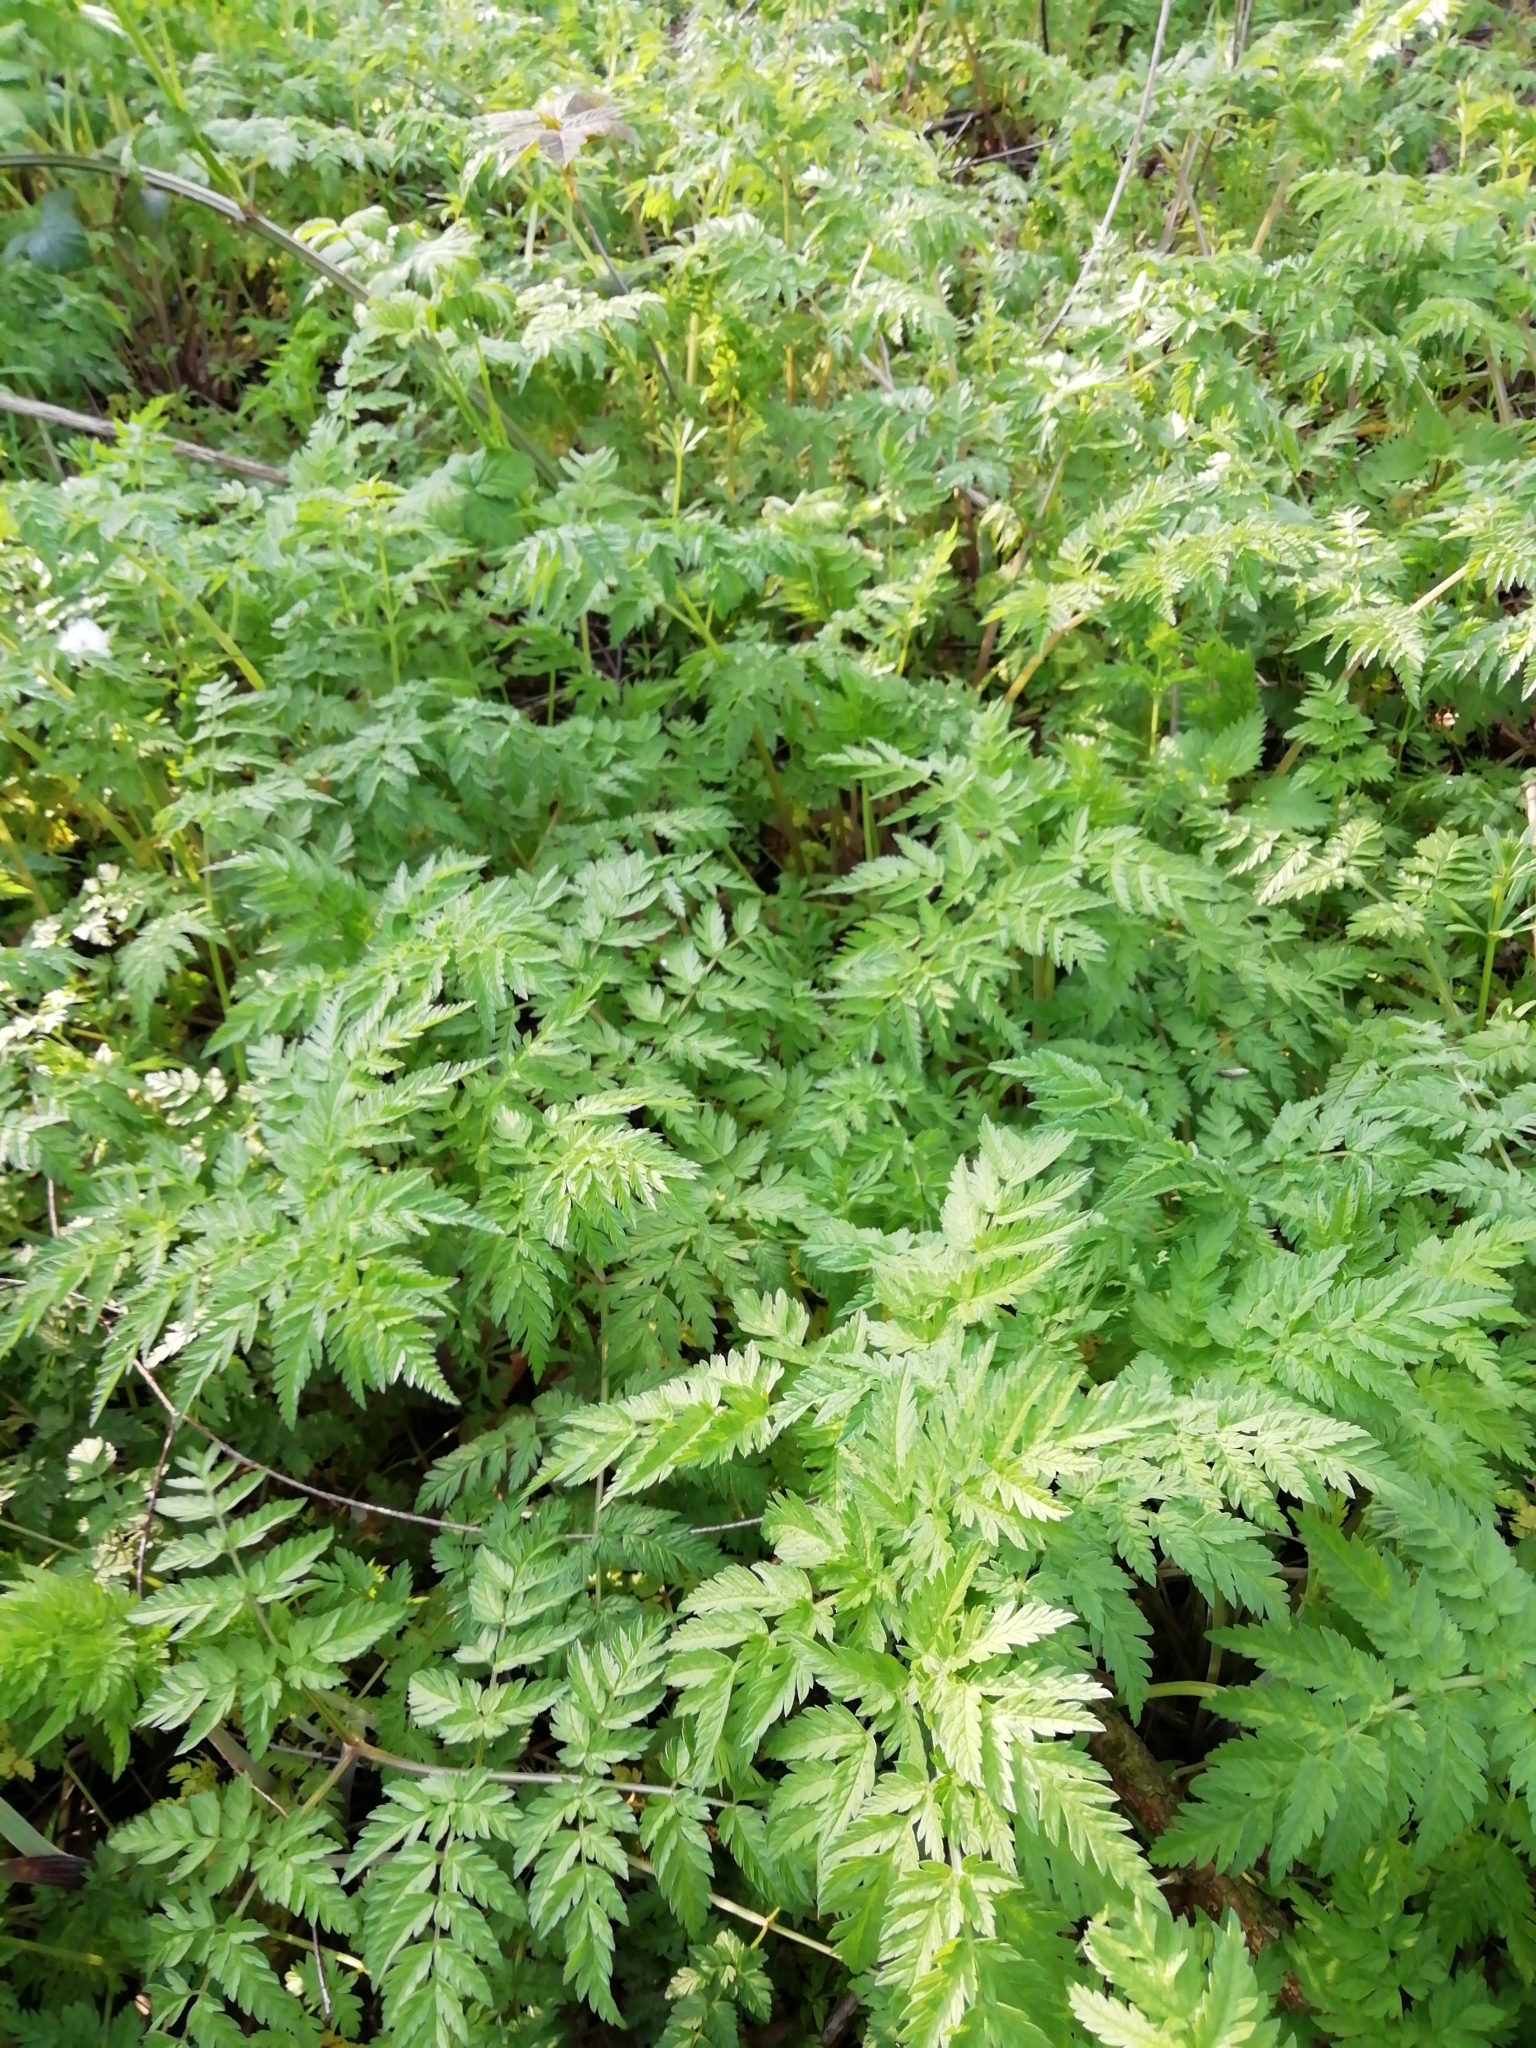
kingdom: Plantae
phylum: Tracheophyta
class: Magnoliopsida
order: Apiales
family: Apiaceae
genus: Anthriscus
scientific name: Anthriscus sylvestris
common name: Cow parsley
